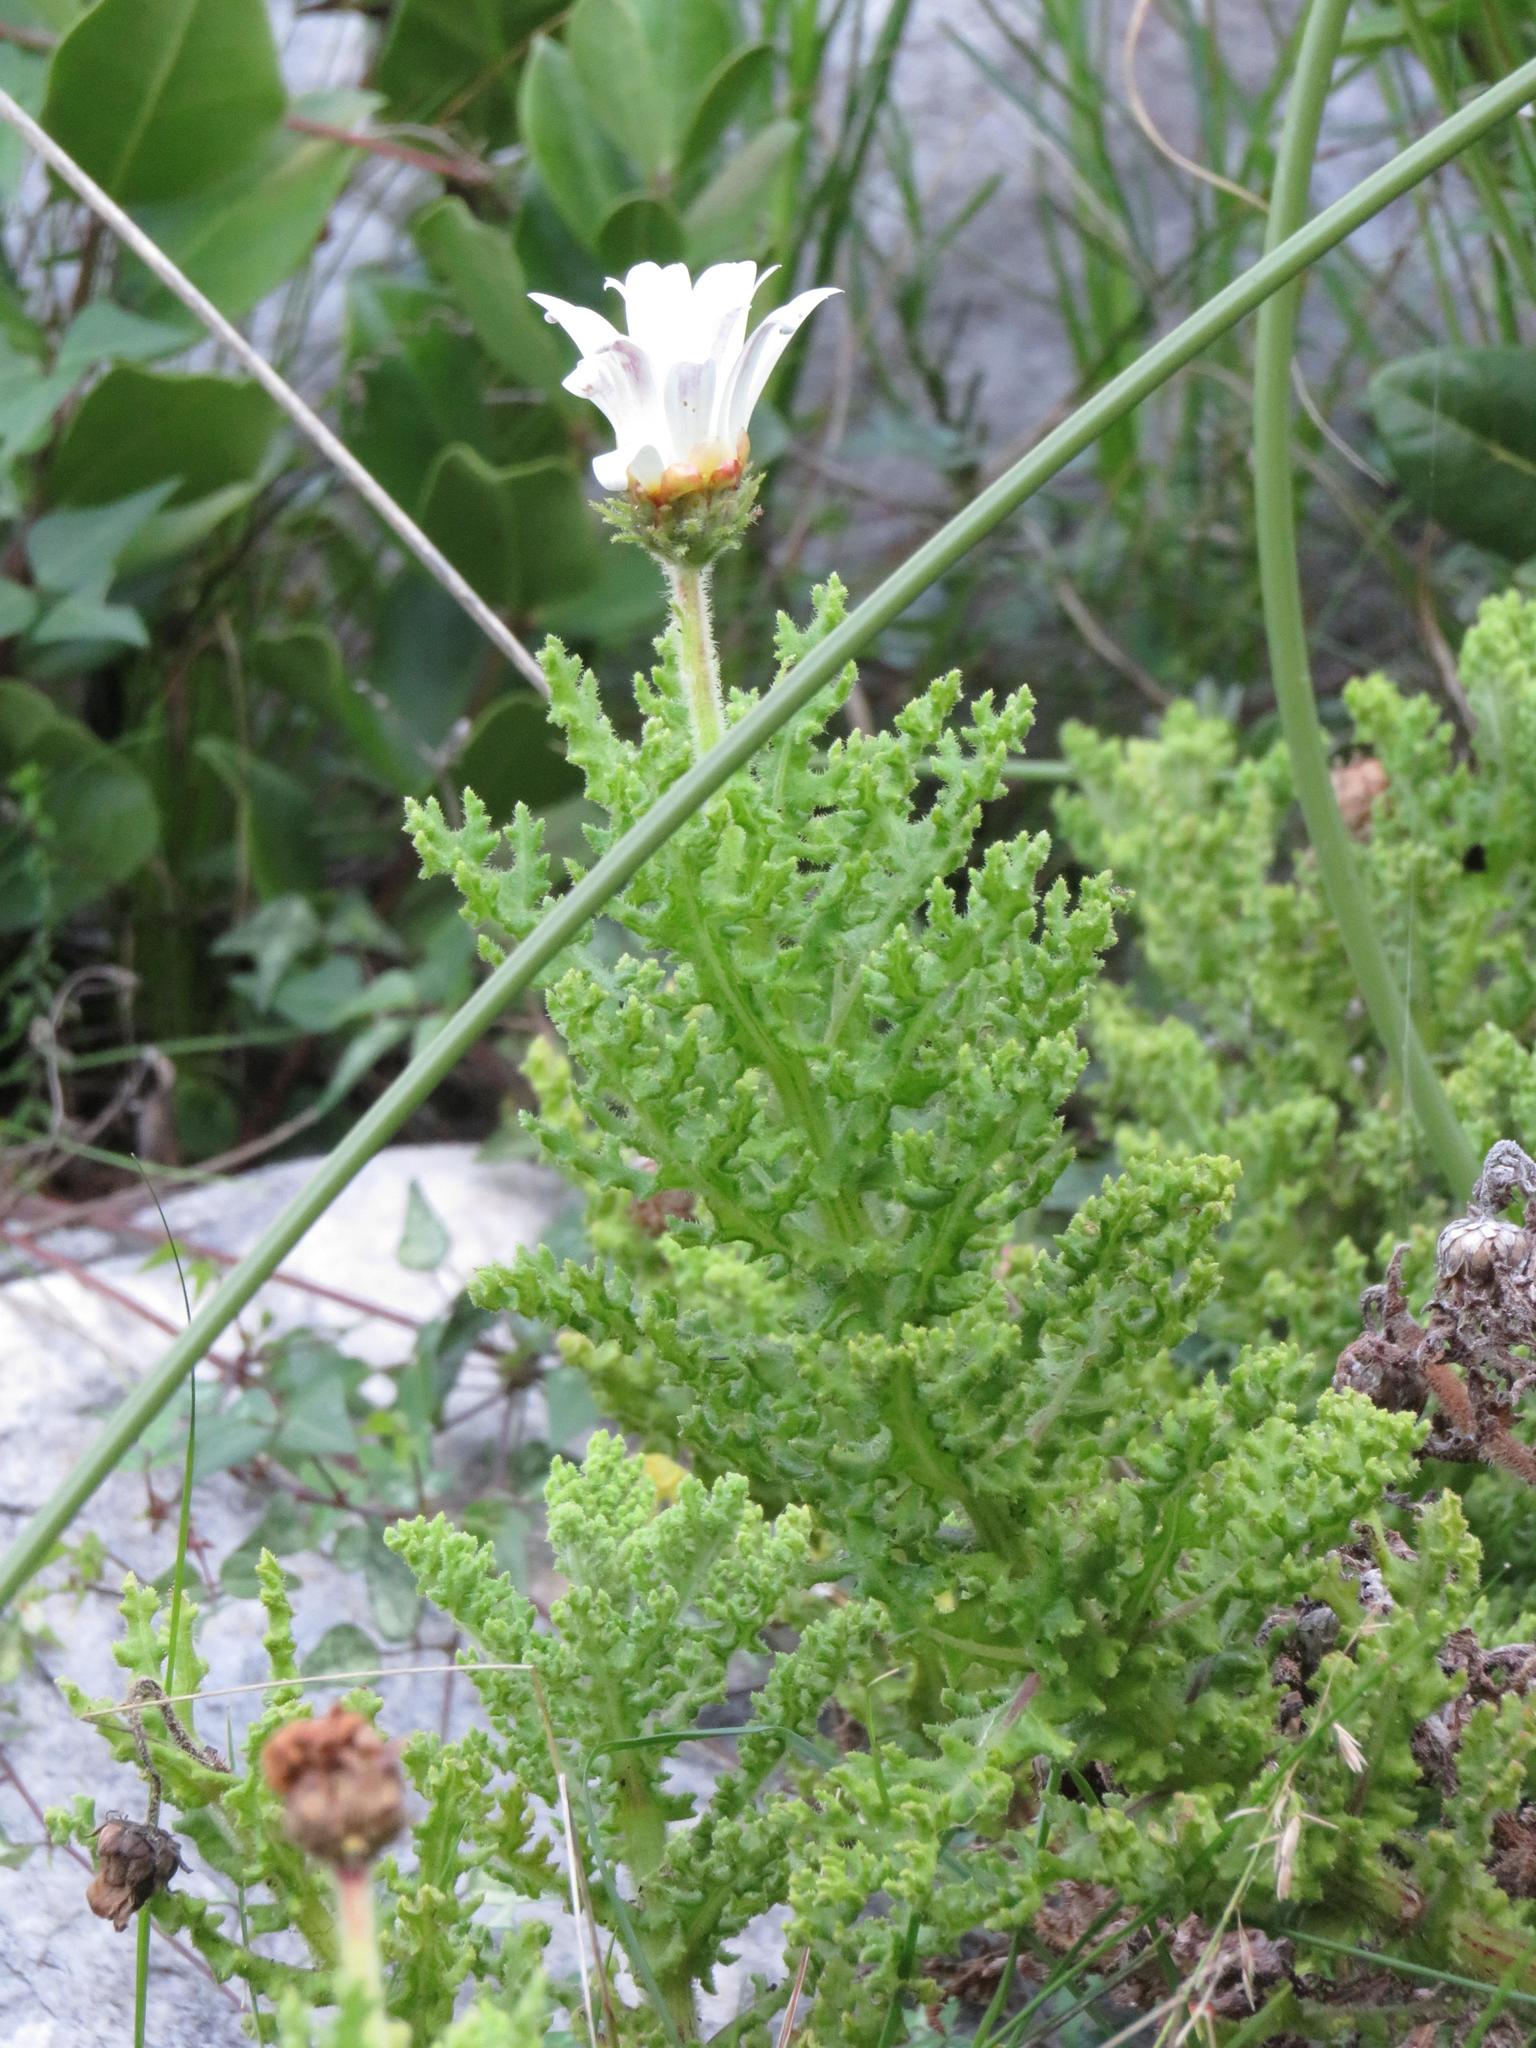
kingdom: Plantae
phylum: Tracheophyta
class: Magnoliopsida
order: Asterales
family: Asteraceae
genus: Arctotis
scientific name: Arctotis aspera
